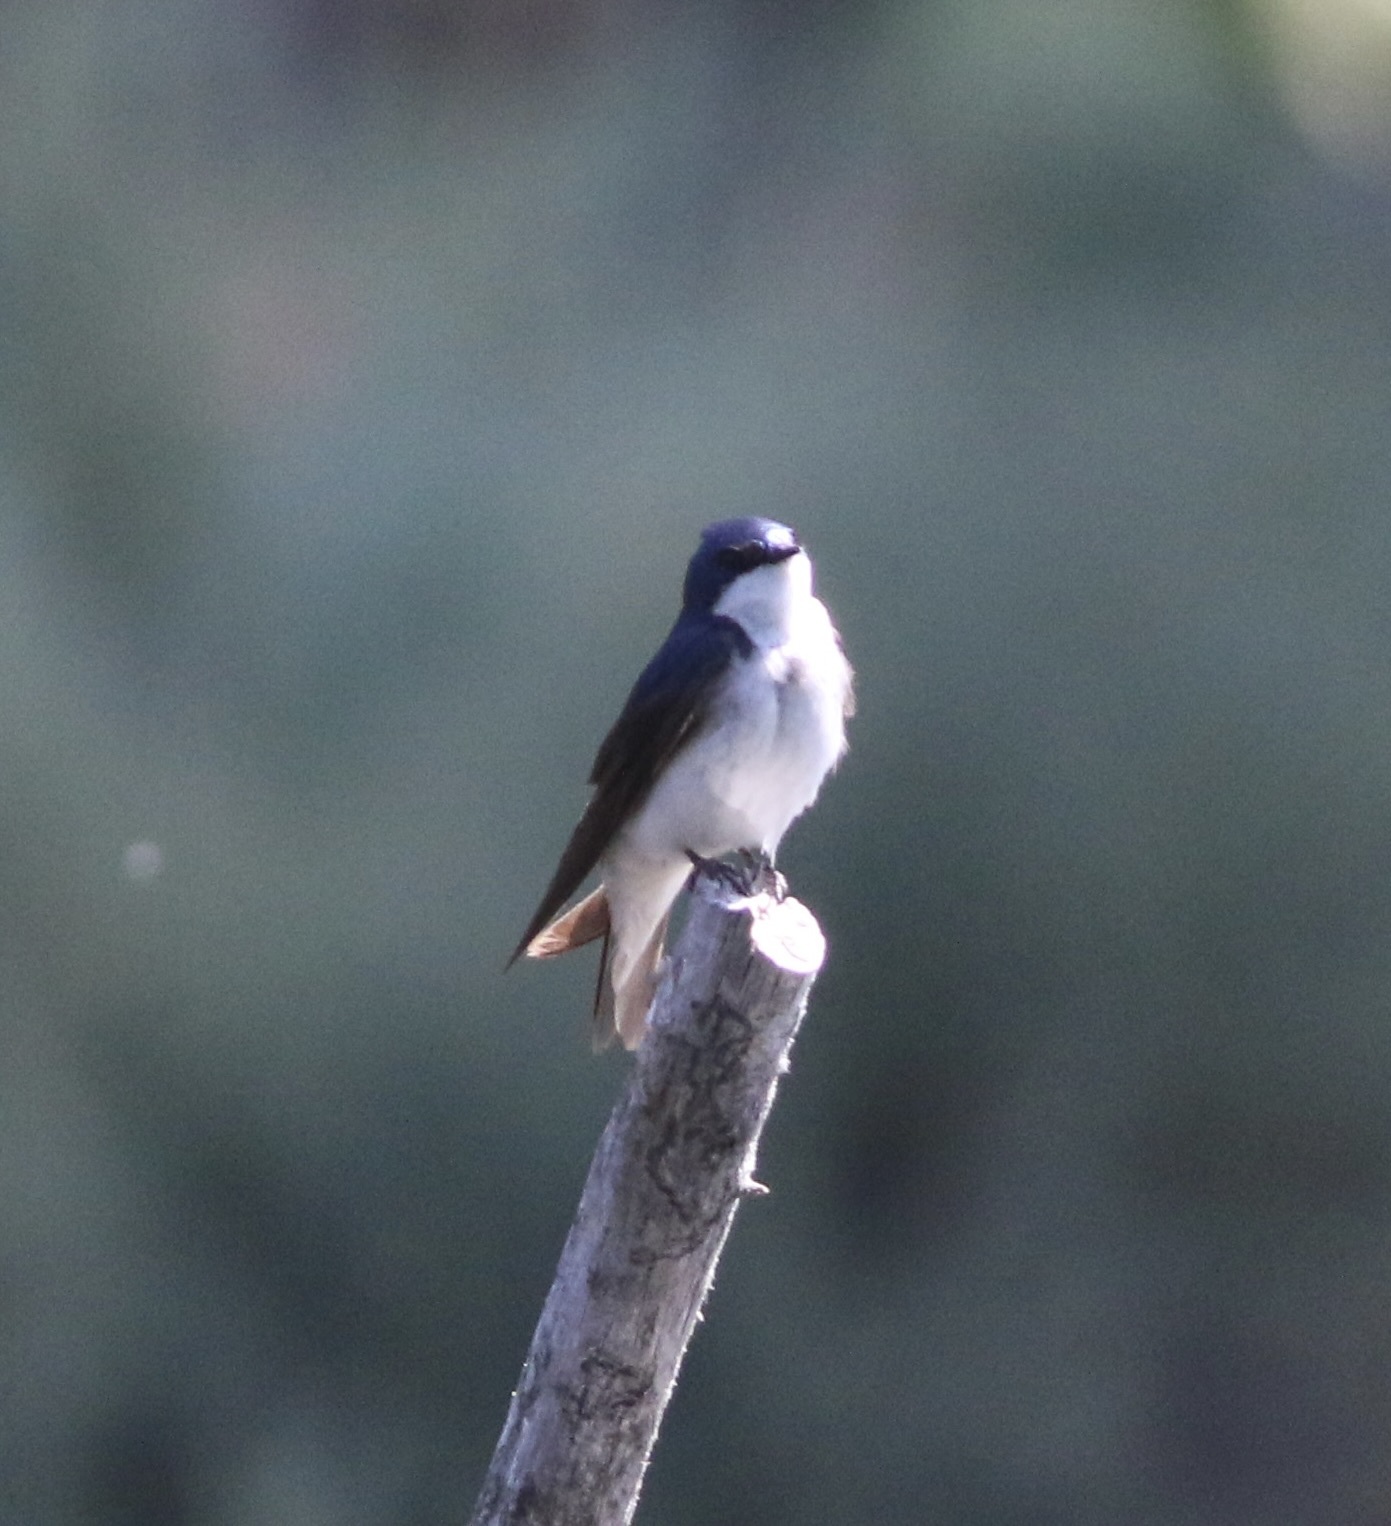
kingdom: Animalia
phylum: Chordata
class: Aves
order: Passeriformes
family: Hirundinidae
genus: Tachycineta
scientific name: Tachycineta bicolor
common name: Tree swallow
